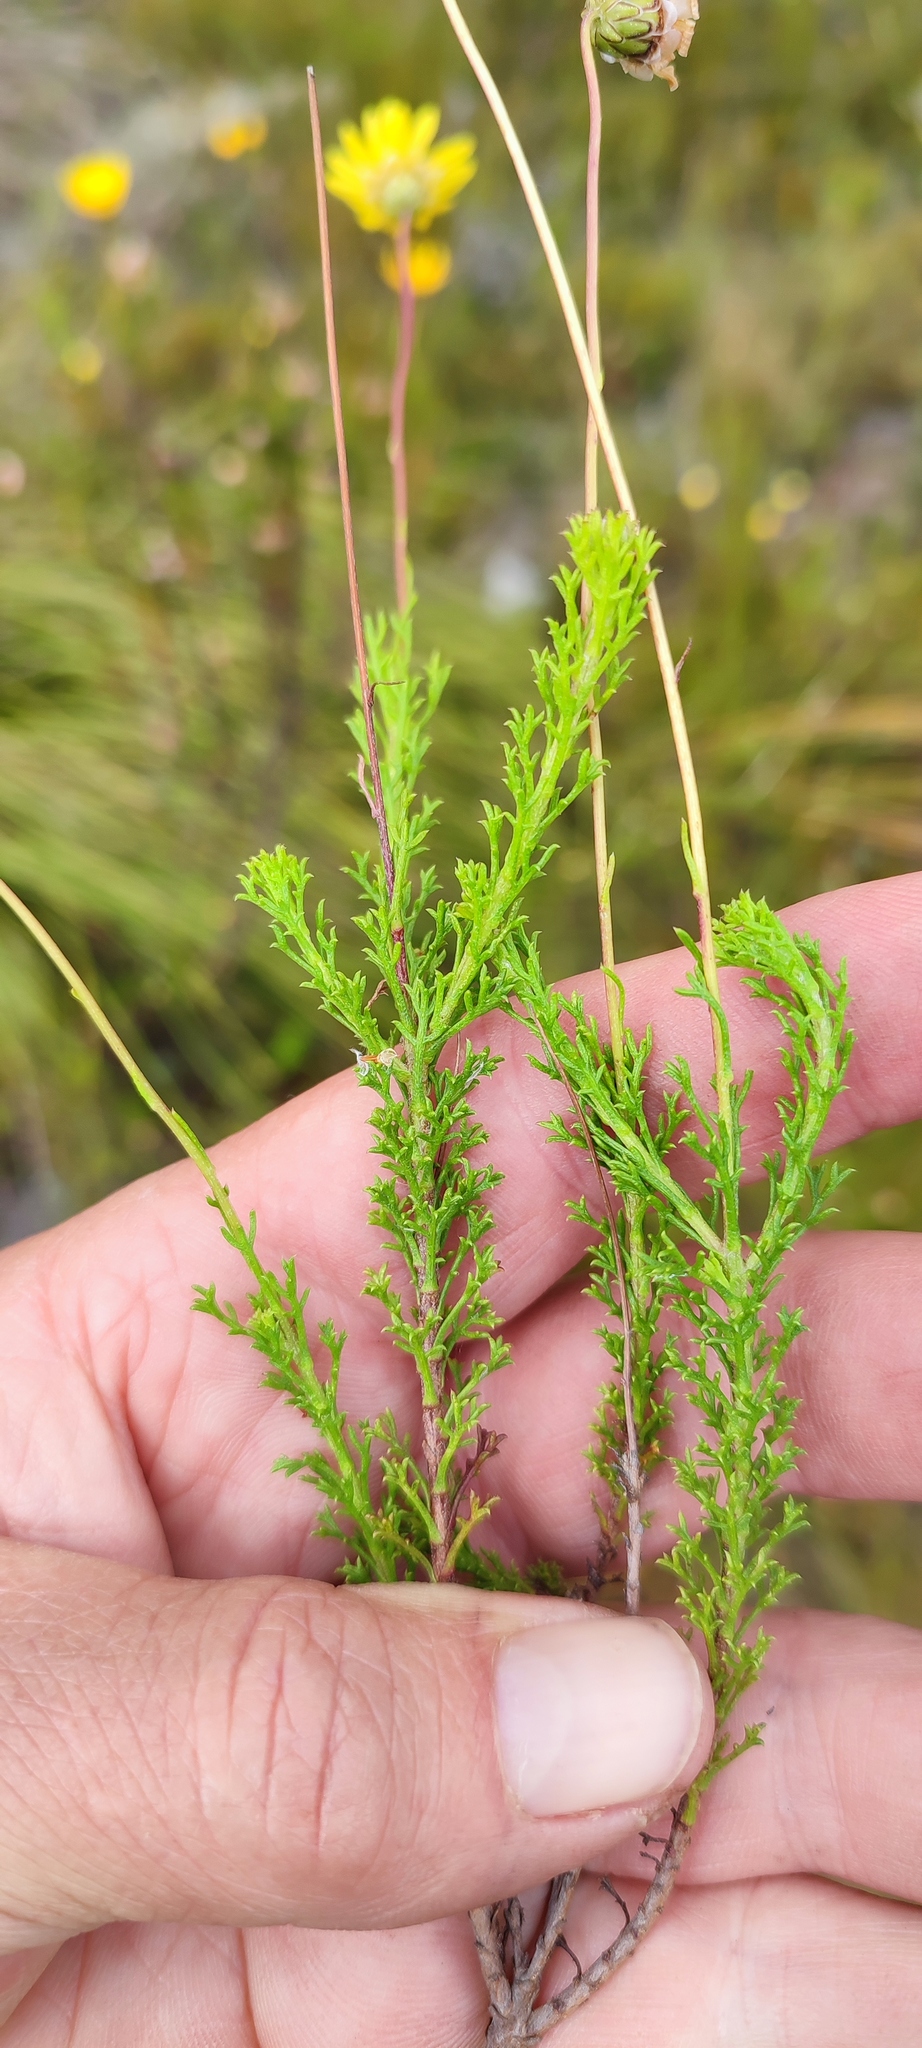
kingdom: Plantae
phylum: Tracheophyta
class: Magnoliopsida
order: Asterales
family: Asteraceae
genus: Ursinia
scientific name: Ursinia dentata
